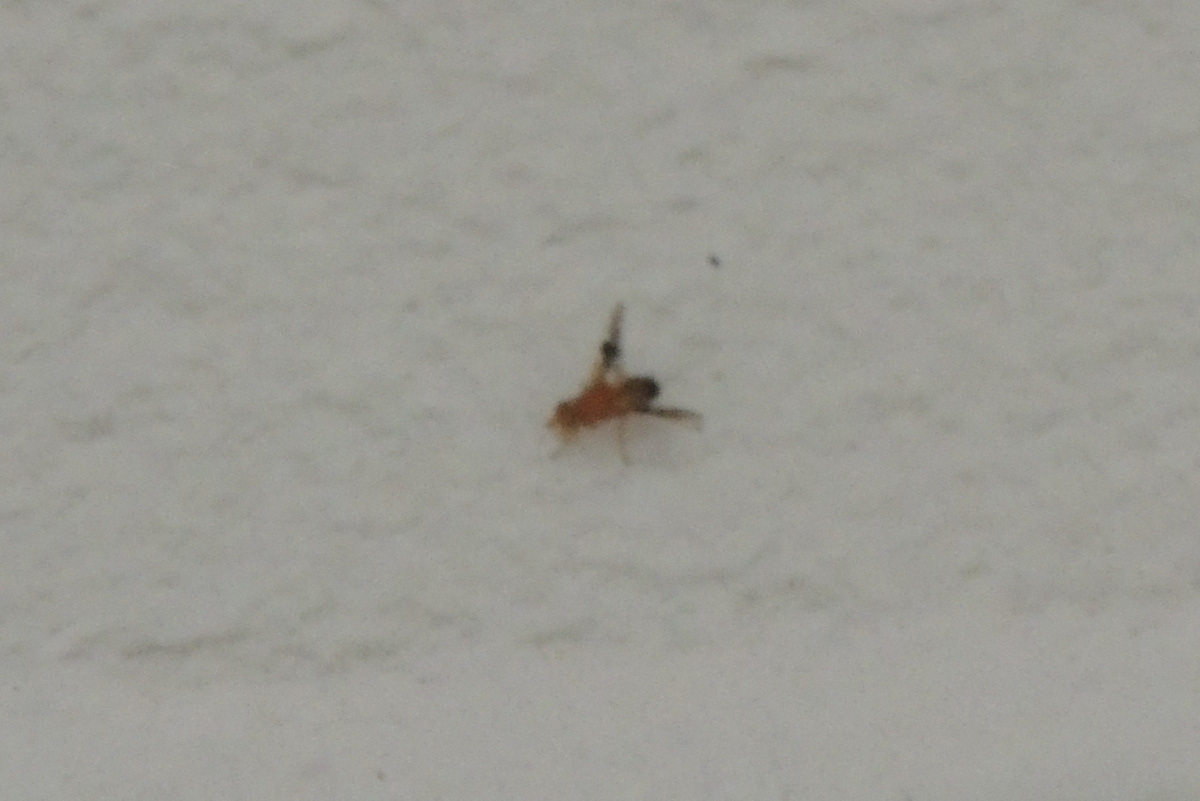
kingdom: Animalia
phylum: Arthropoda
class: Insecta
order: Diptera
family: Tephritidae
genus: Parastenopa
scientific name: Parastenopa limata
